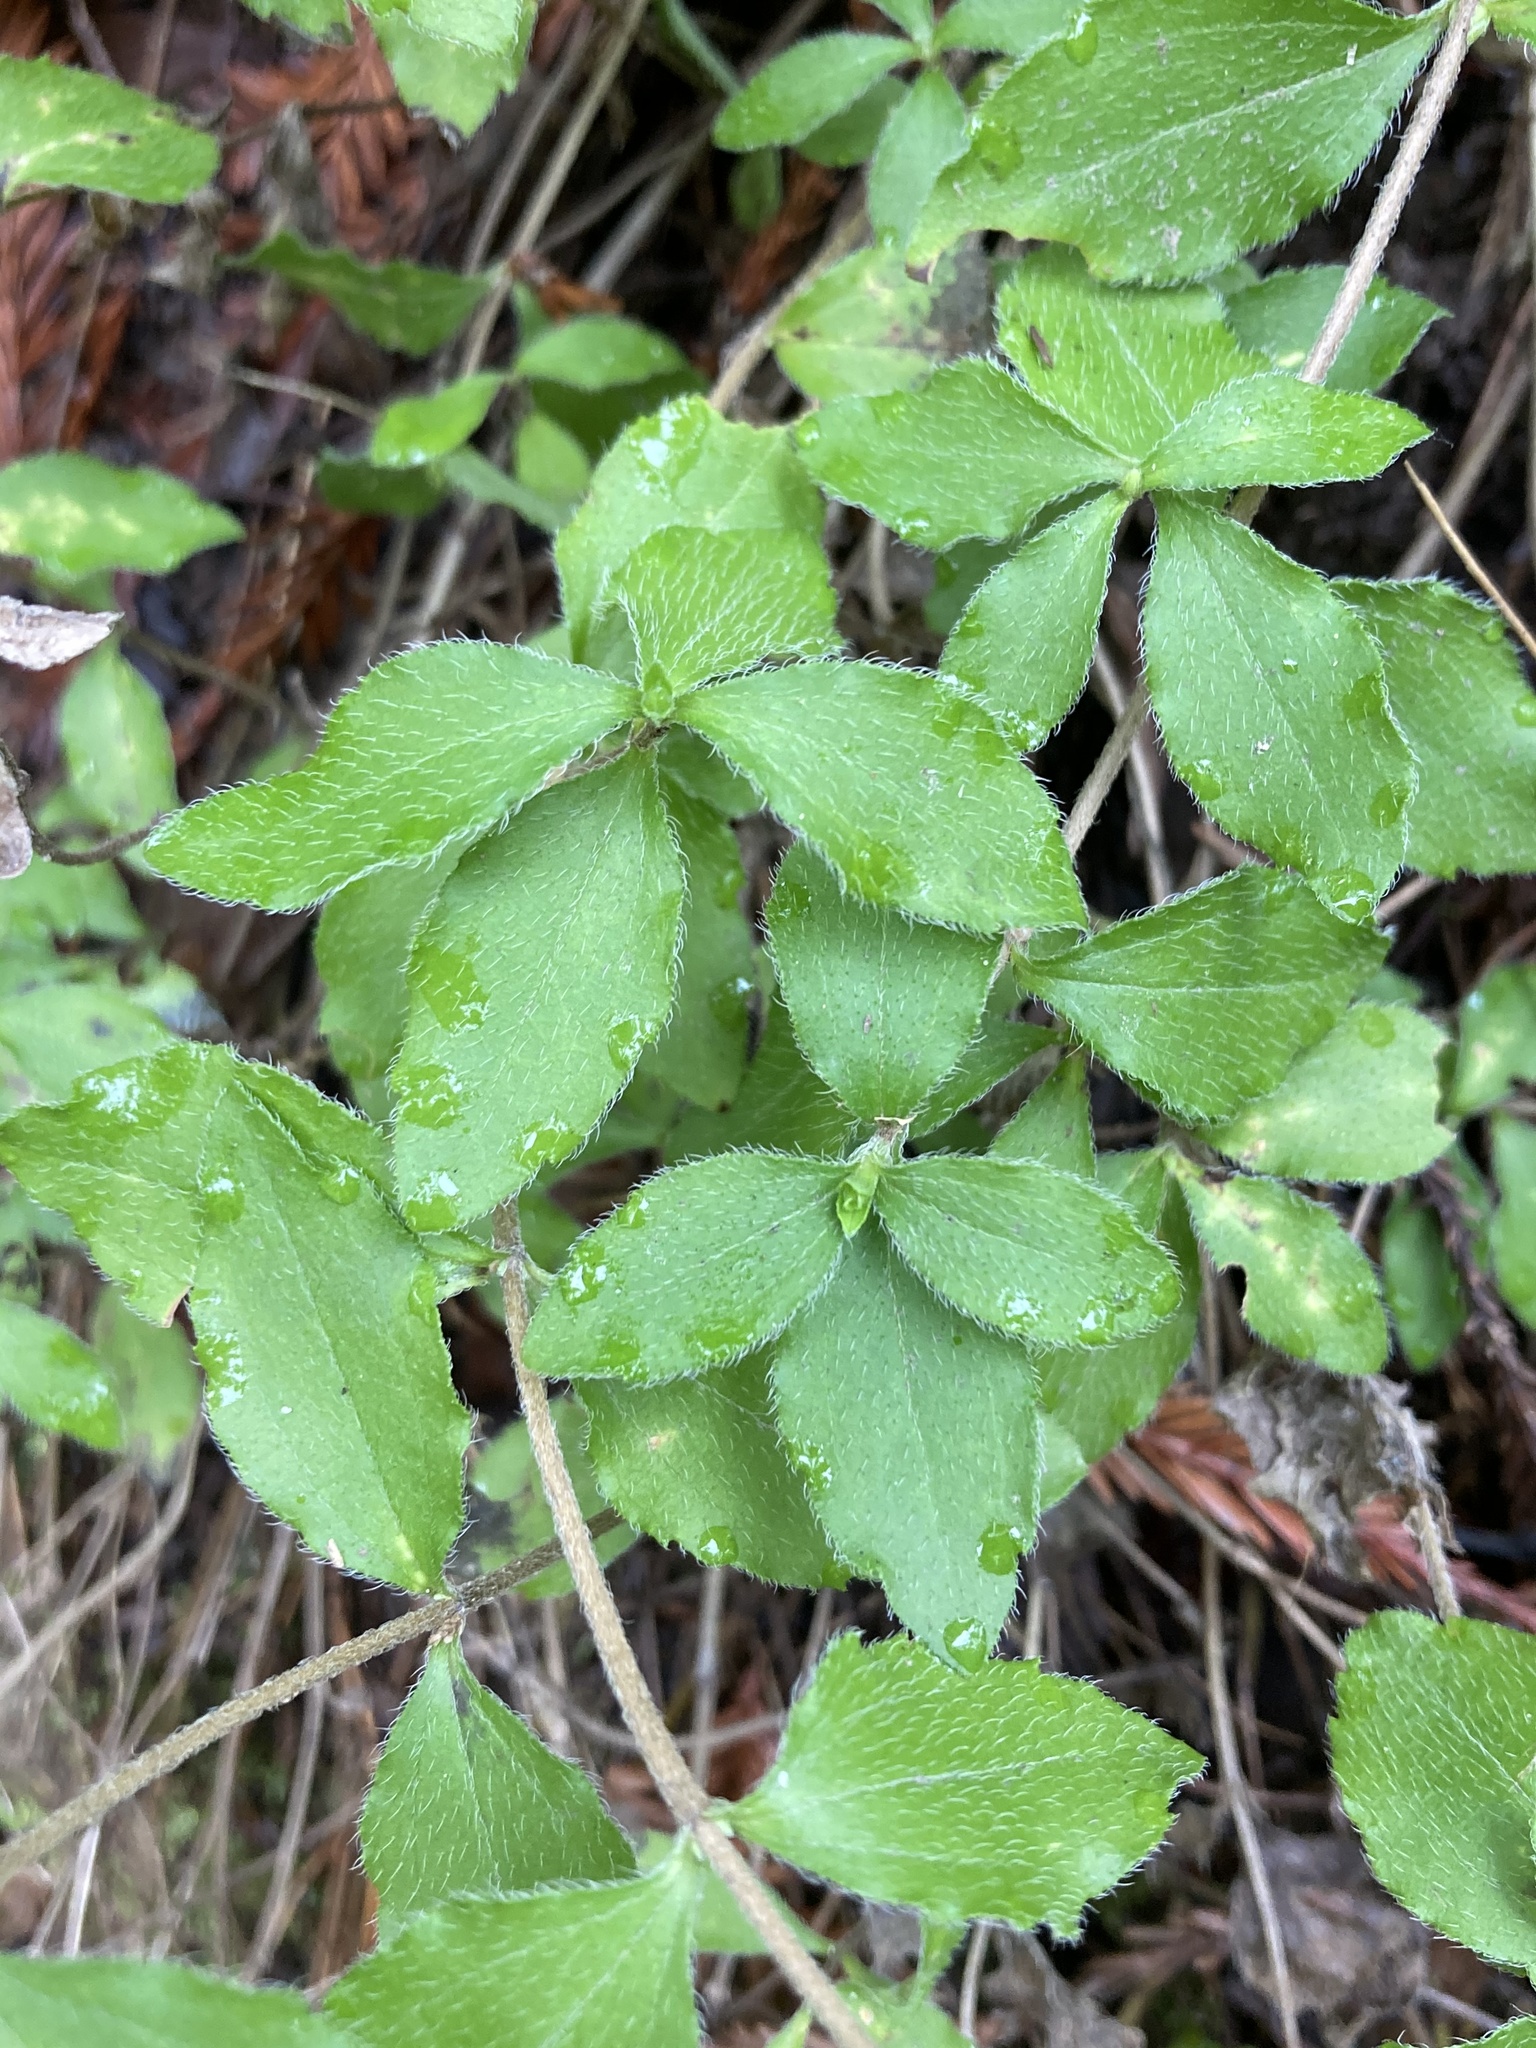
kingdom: Plantae
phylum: Tracheophyta
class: Magnoliopsida
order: Cornales
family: Hydrangeaceae
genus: Whipplea
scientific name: Whipplea modesta
